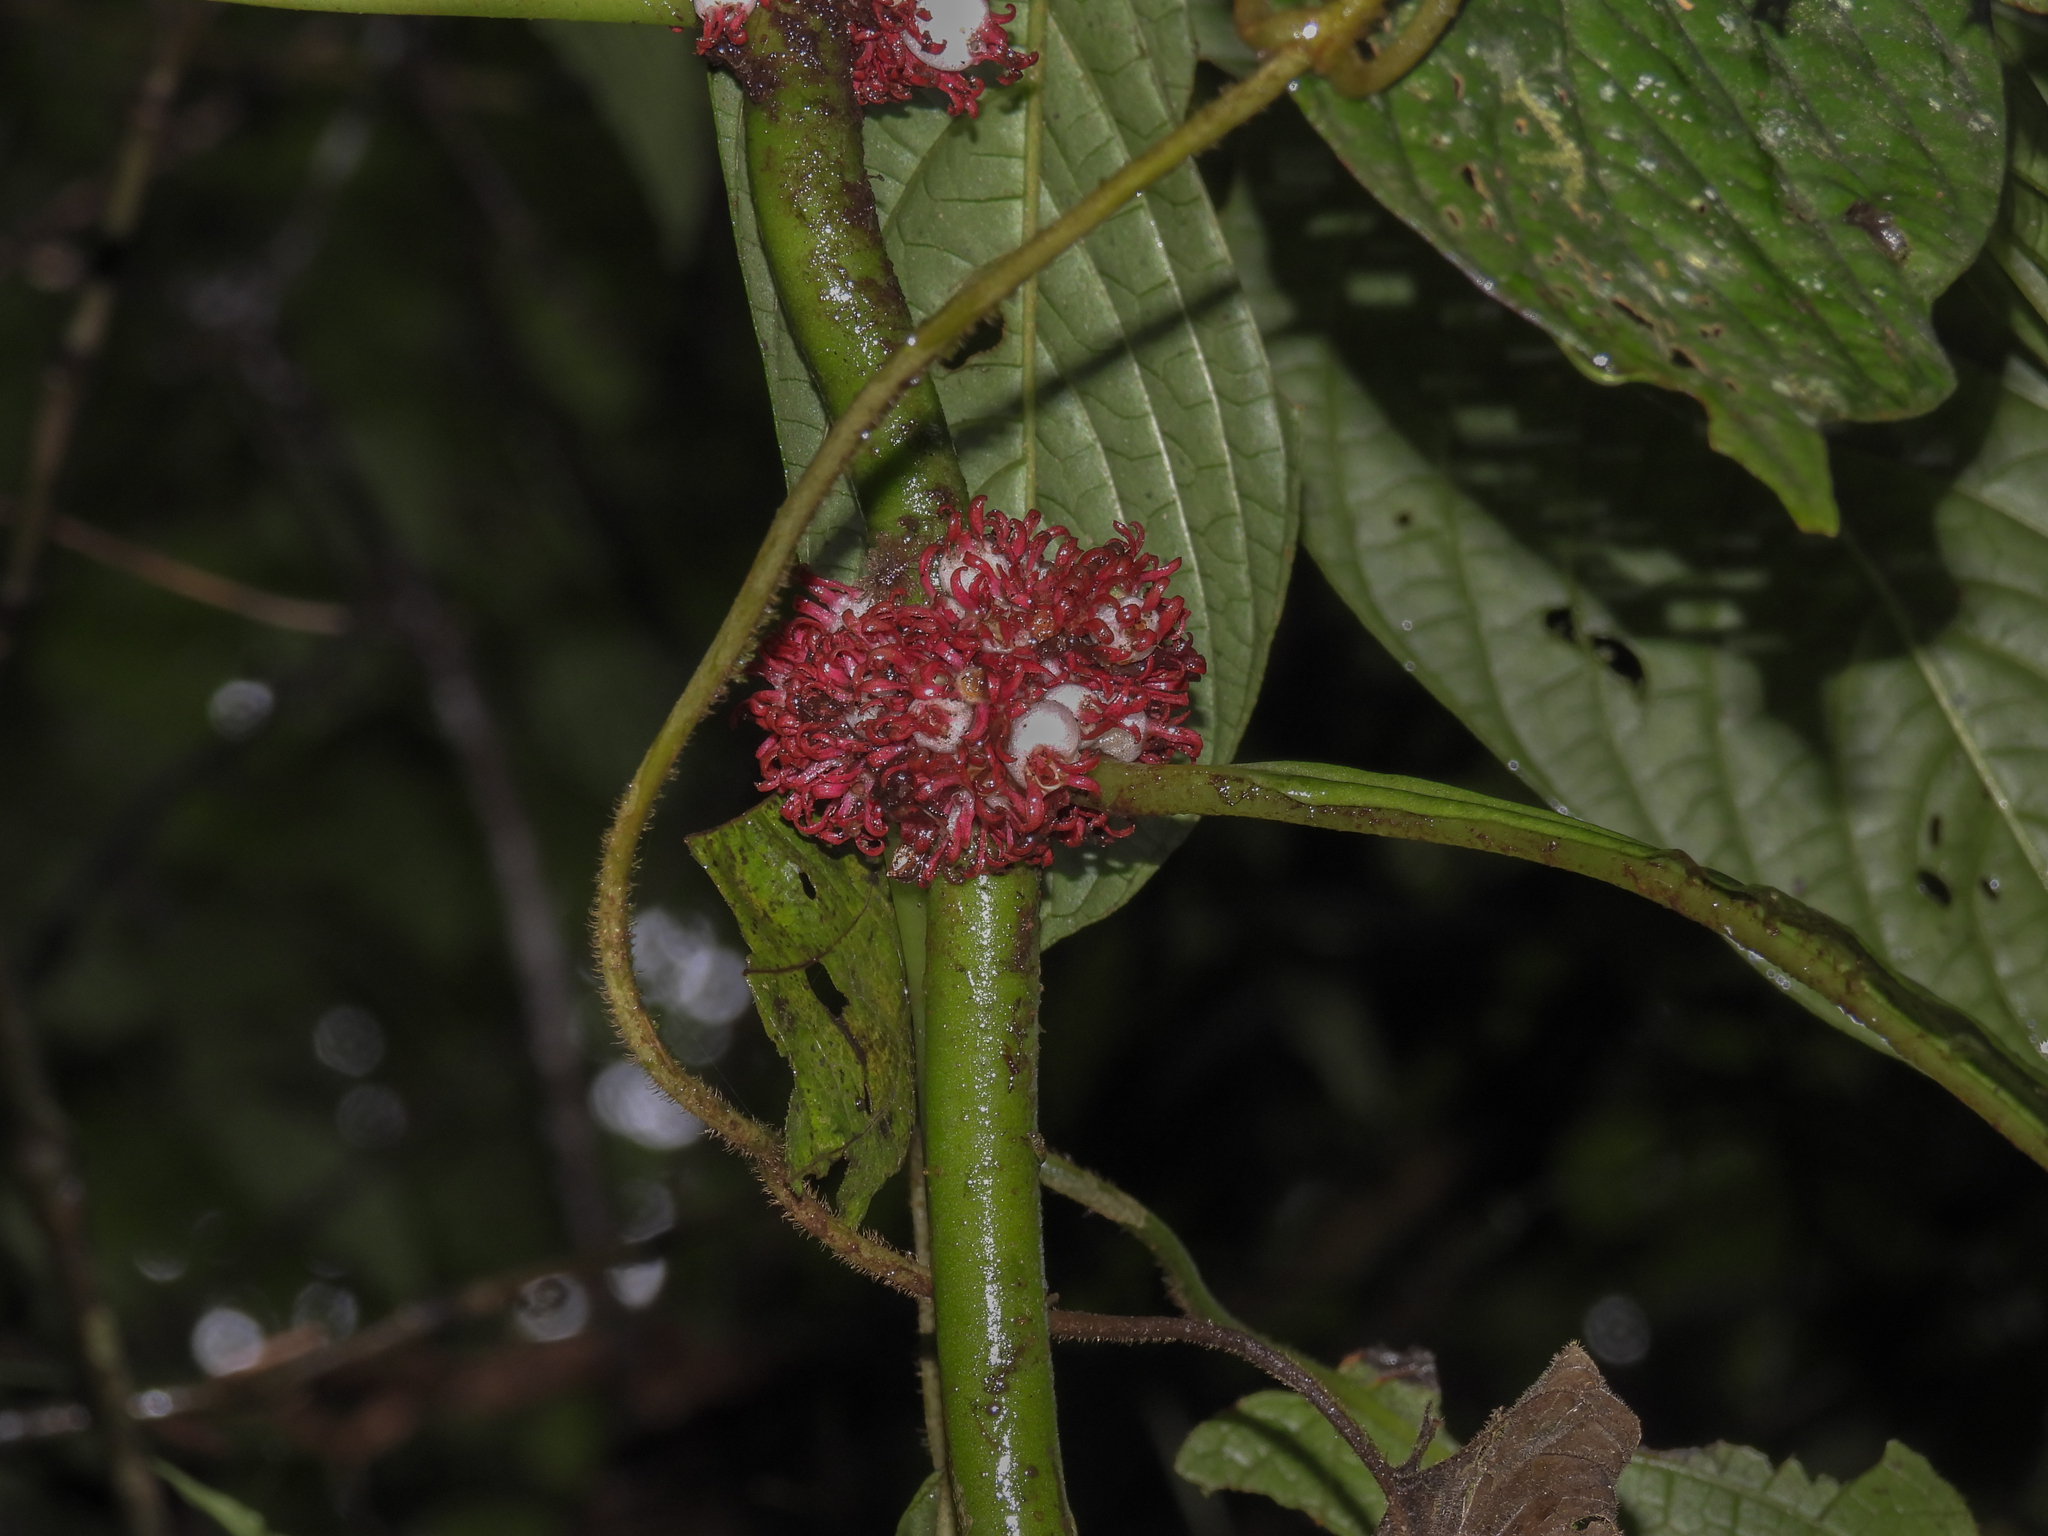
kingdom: Plantae
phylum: Tracheophyta
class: Magnoliopsida
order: Gentianales
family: Rubiaceae
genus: Hoffmannia
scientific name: Hoffmannia congesta
